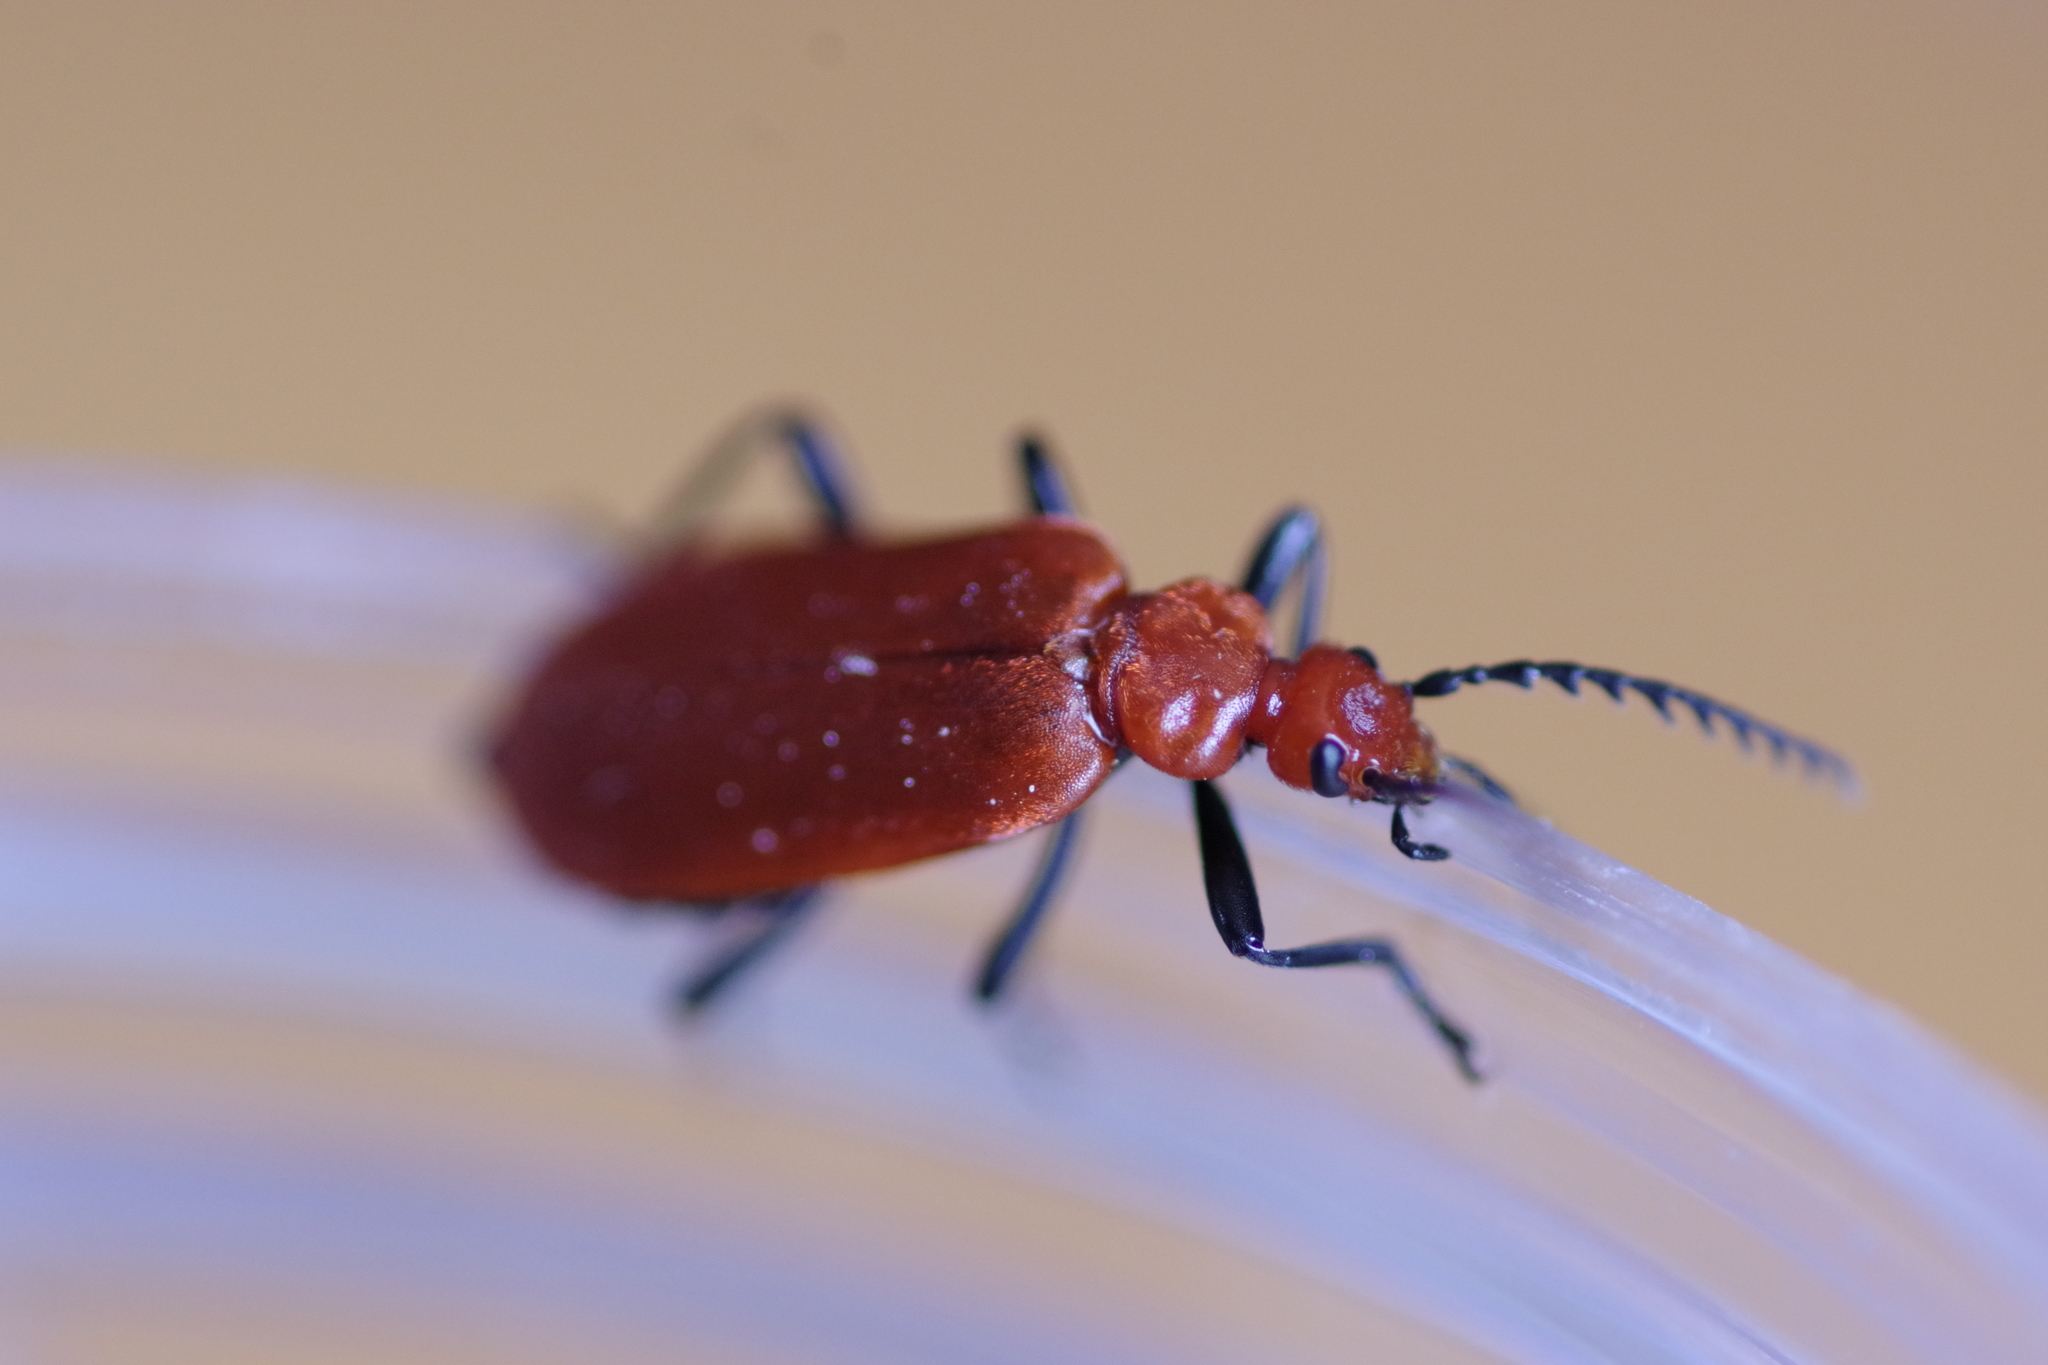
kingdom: Animalia
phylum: Arthropoda
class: Insecta
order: Coleoptera
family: Pyrochroidae
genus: Pyrochroa
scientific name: Pyrochroa serraticornis
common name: Red-headed cardinal beetle
